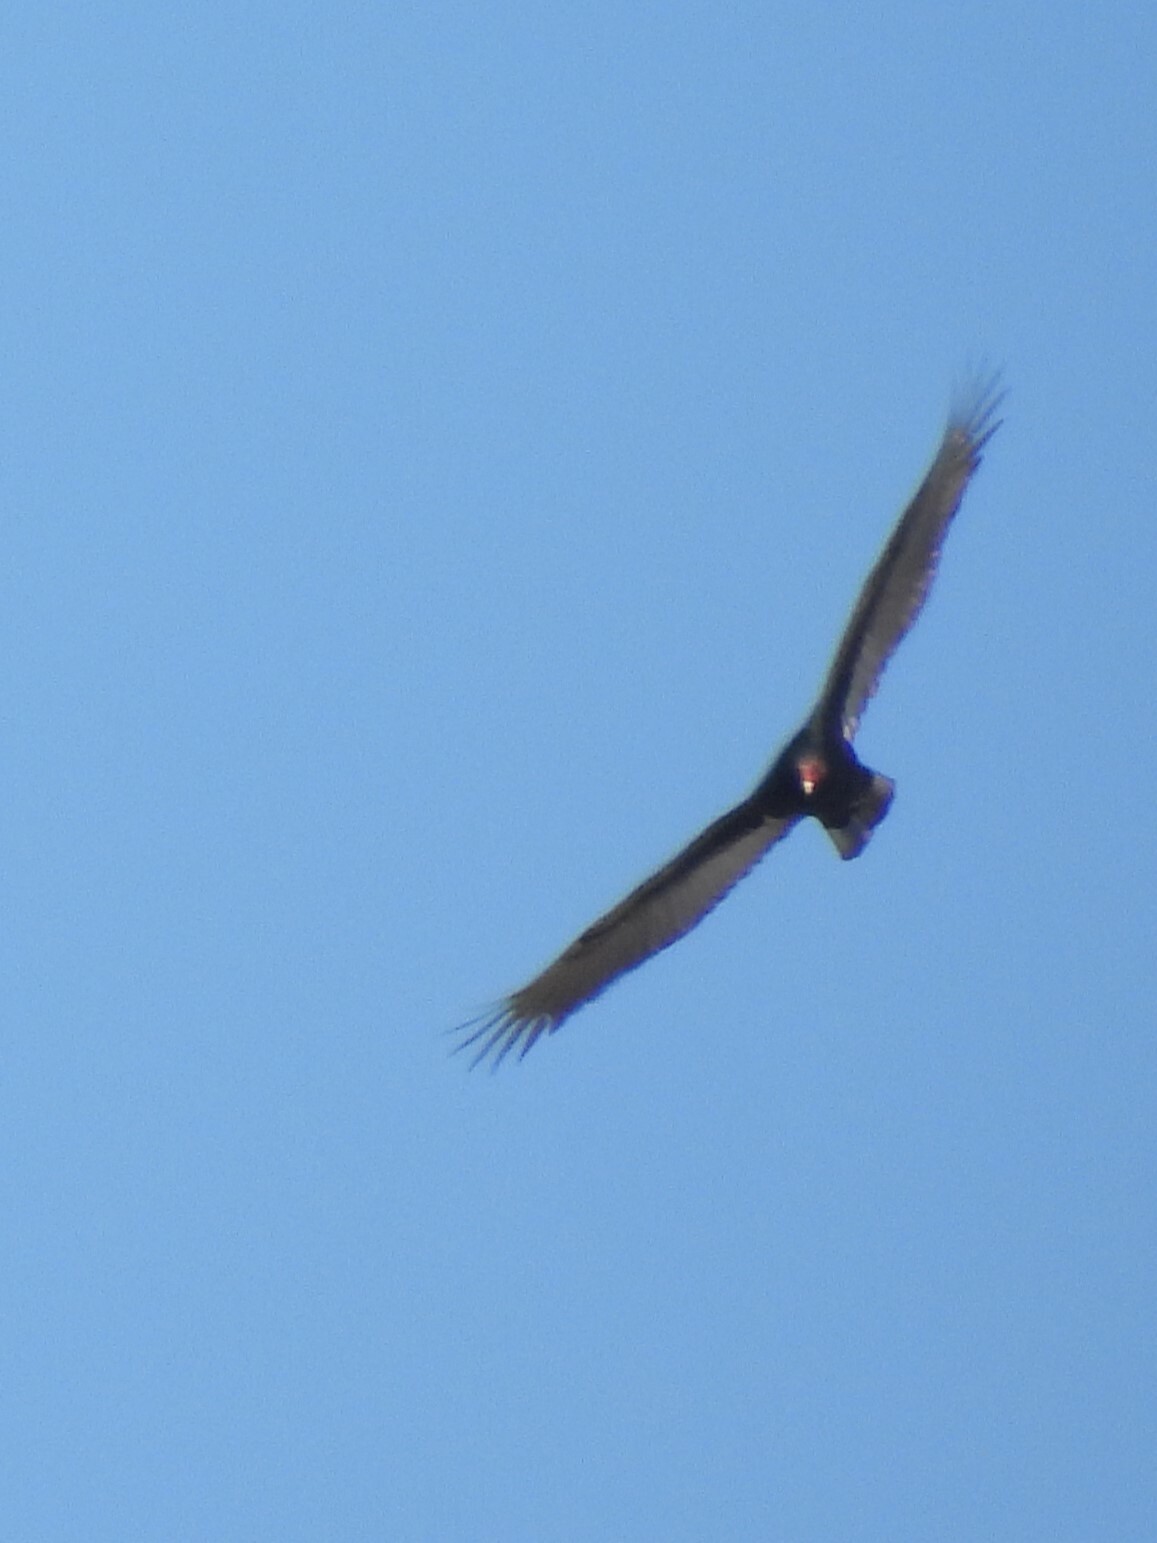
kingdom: Animalia
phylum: Chordata
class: Aves
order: Accipitriformes
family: Cathartidae
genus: Cathartes
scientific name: Cathartes aura
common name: Turkey vulture
